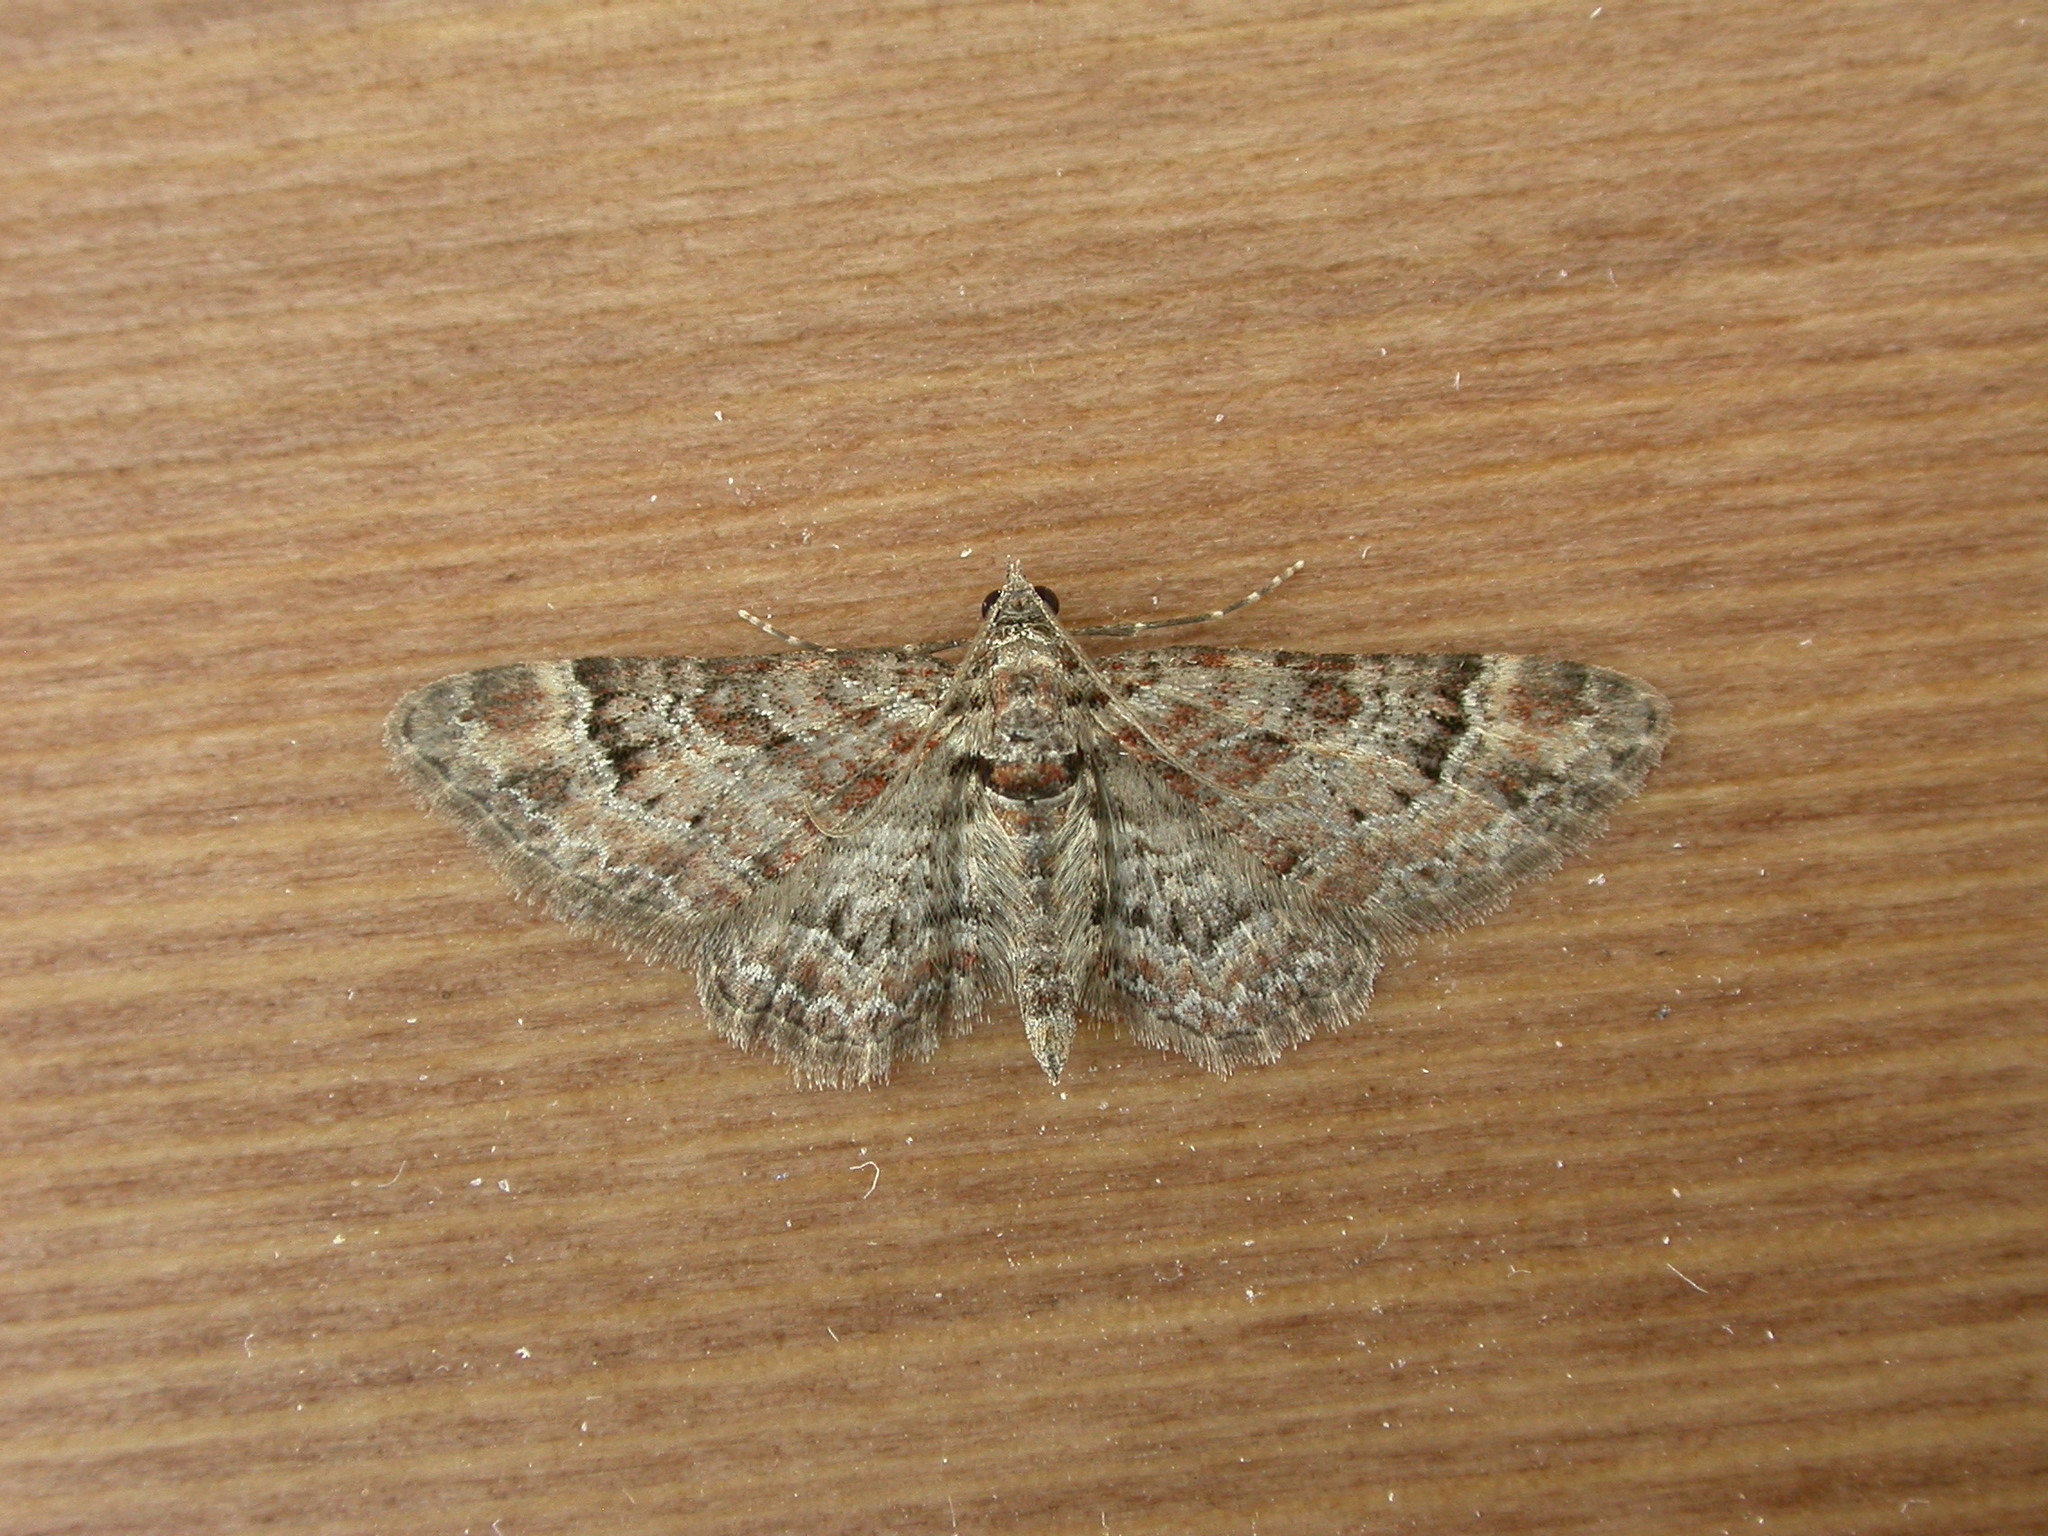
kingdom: Animalia
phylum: Arthropoda
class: Insecta
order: Lepidoptera
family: Geometridae
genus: Gymnoscelis
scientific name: Gymnoscelis rufifasciata
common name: Double-striped pug
